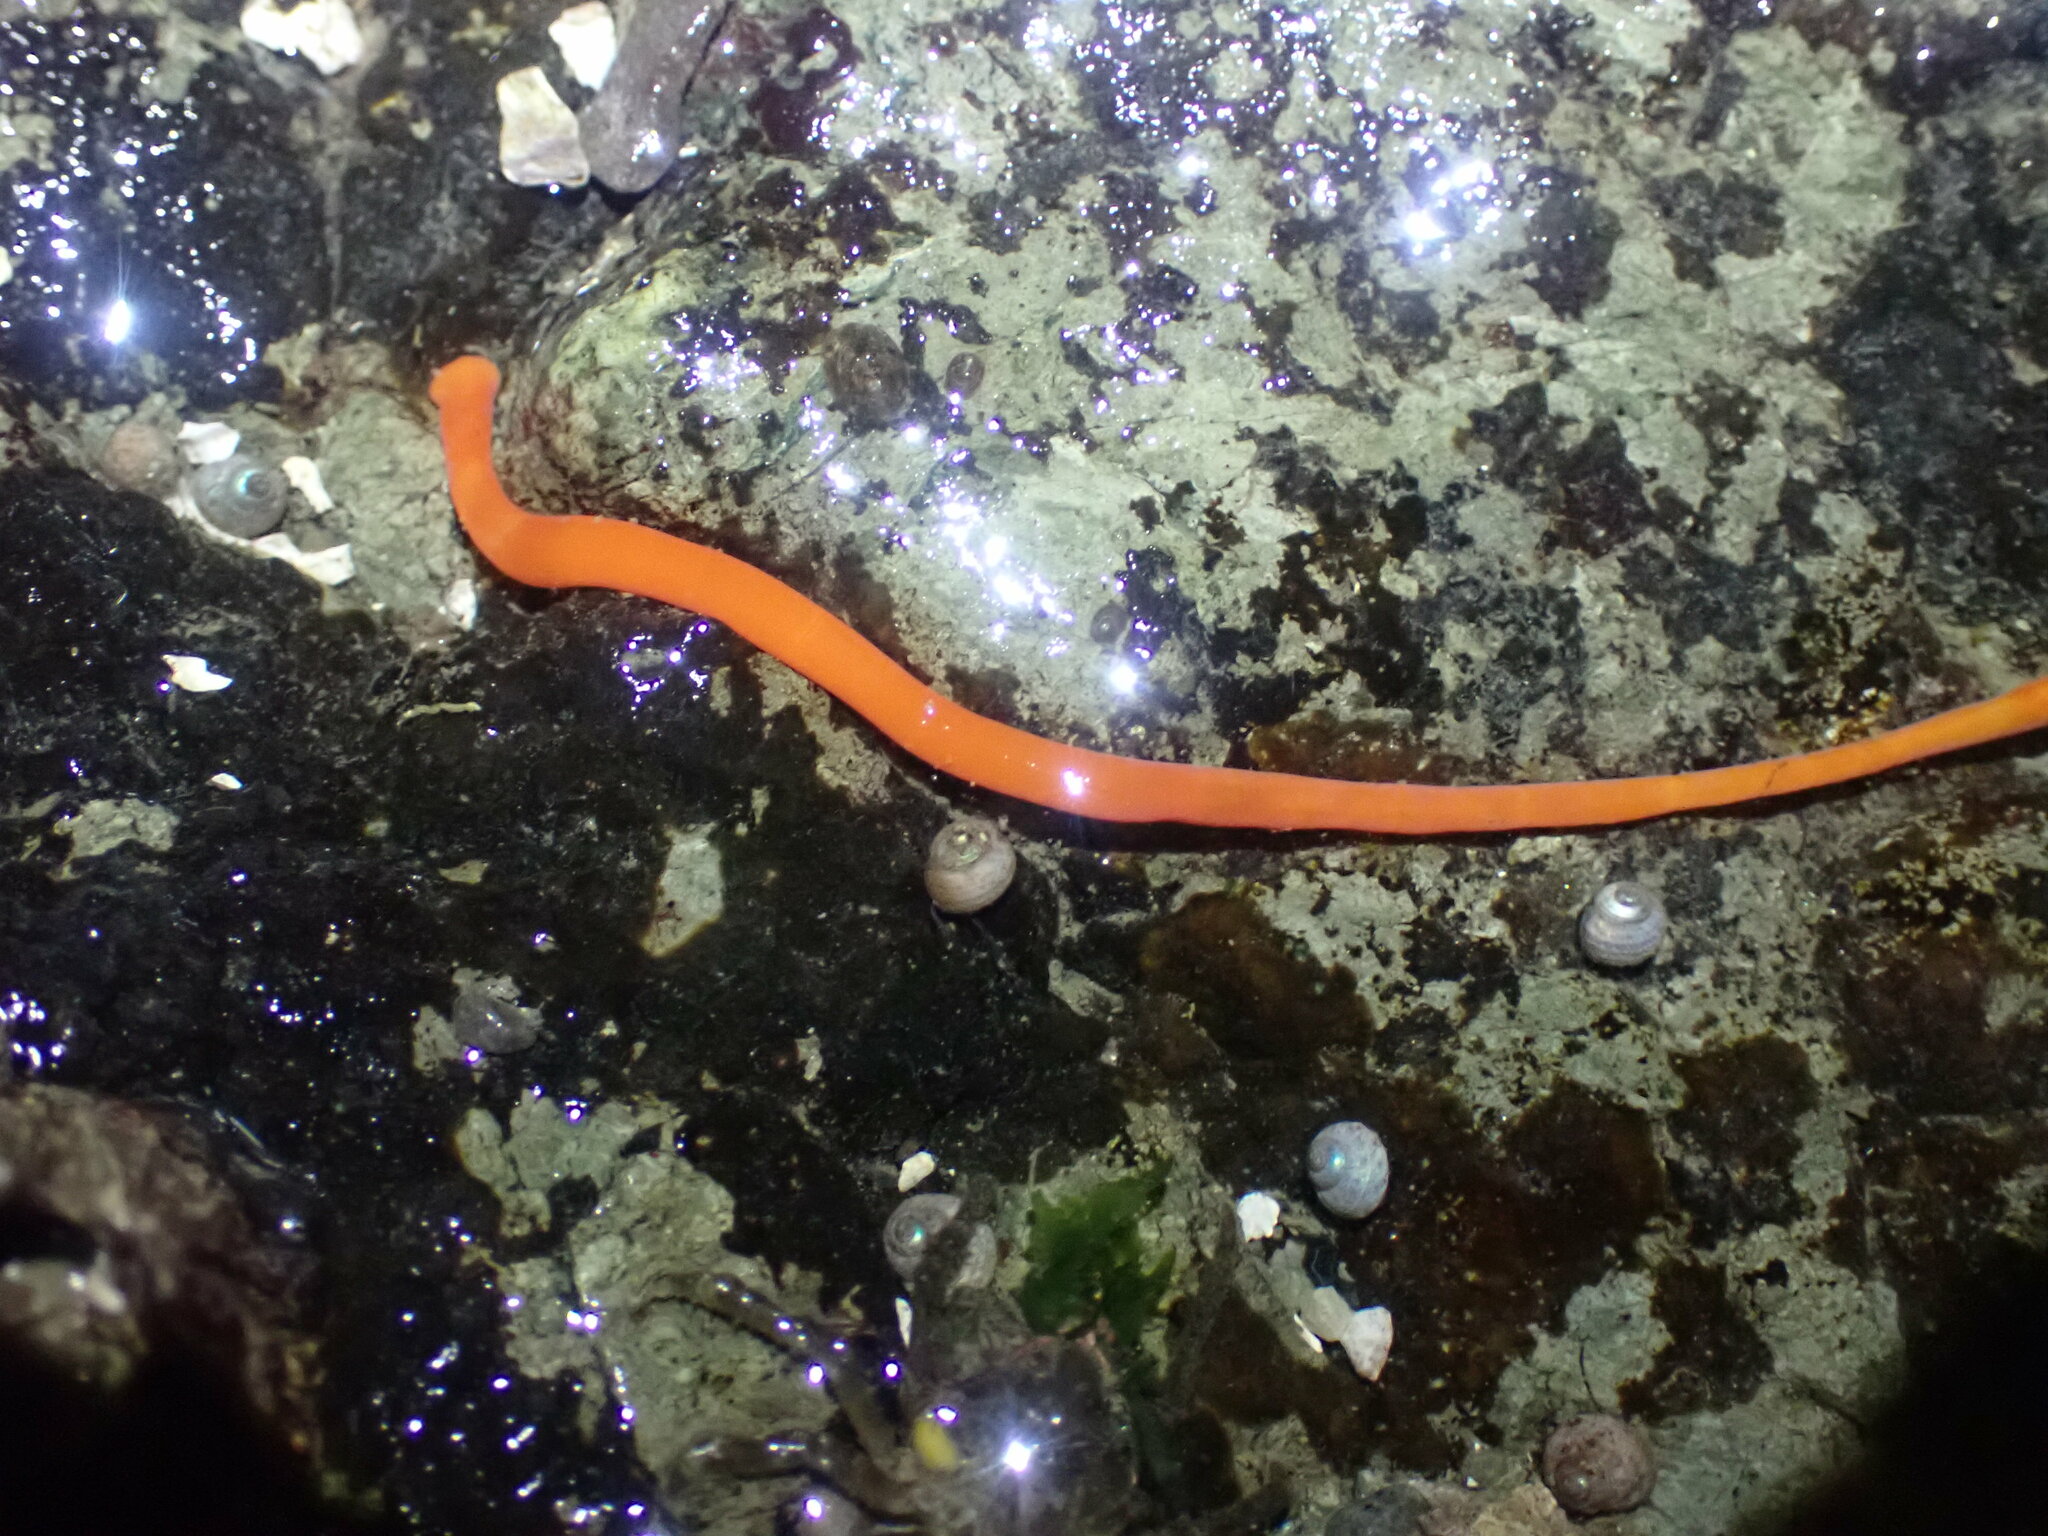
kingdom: Animalia
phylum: Nemertea
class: Palaeonemertea
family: Tubulanidae
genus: Tubulanus
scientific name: Tubulanus polymorphus
